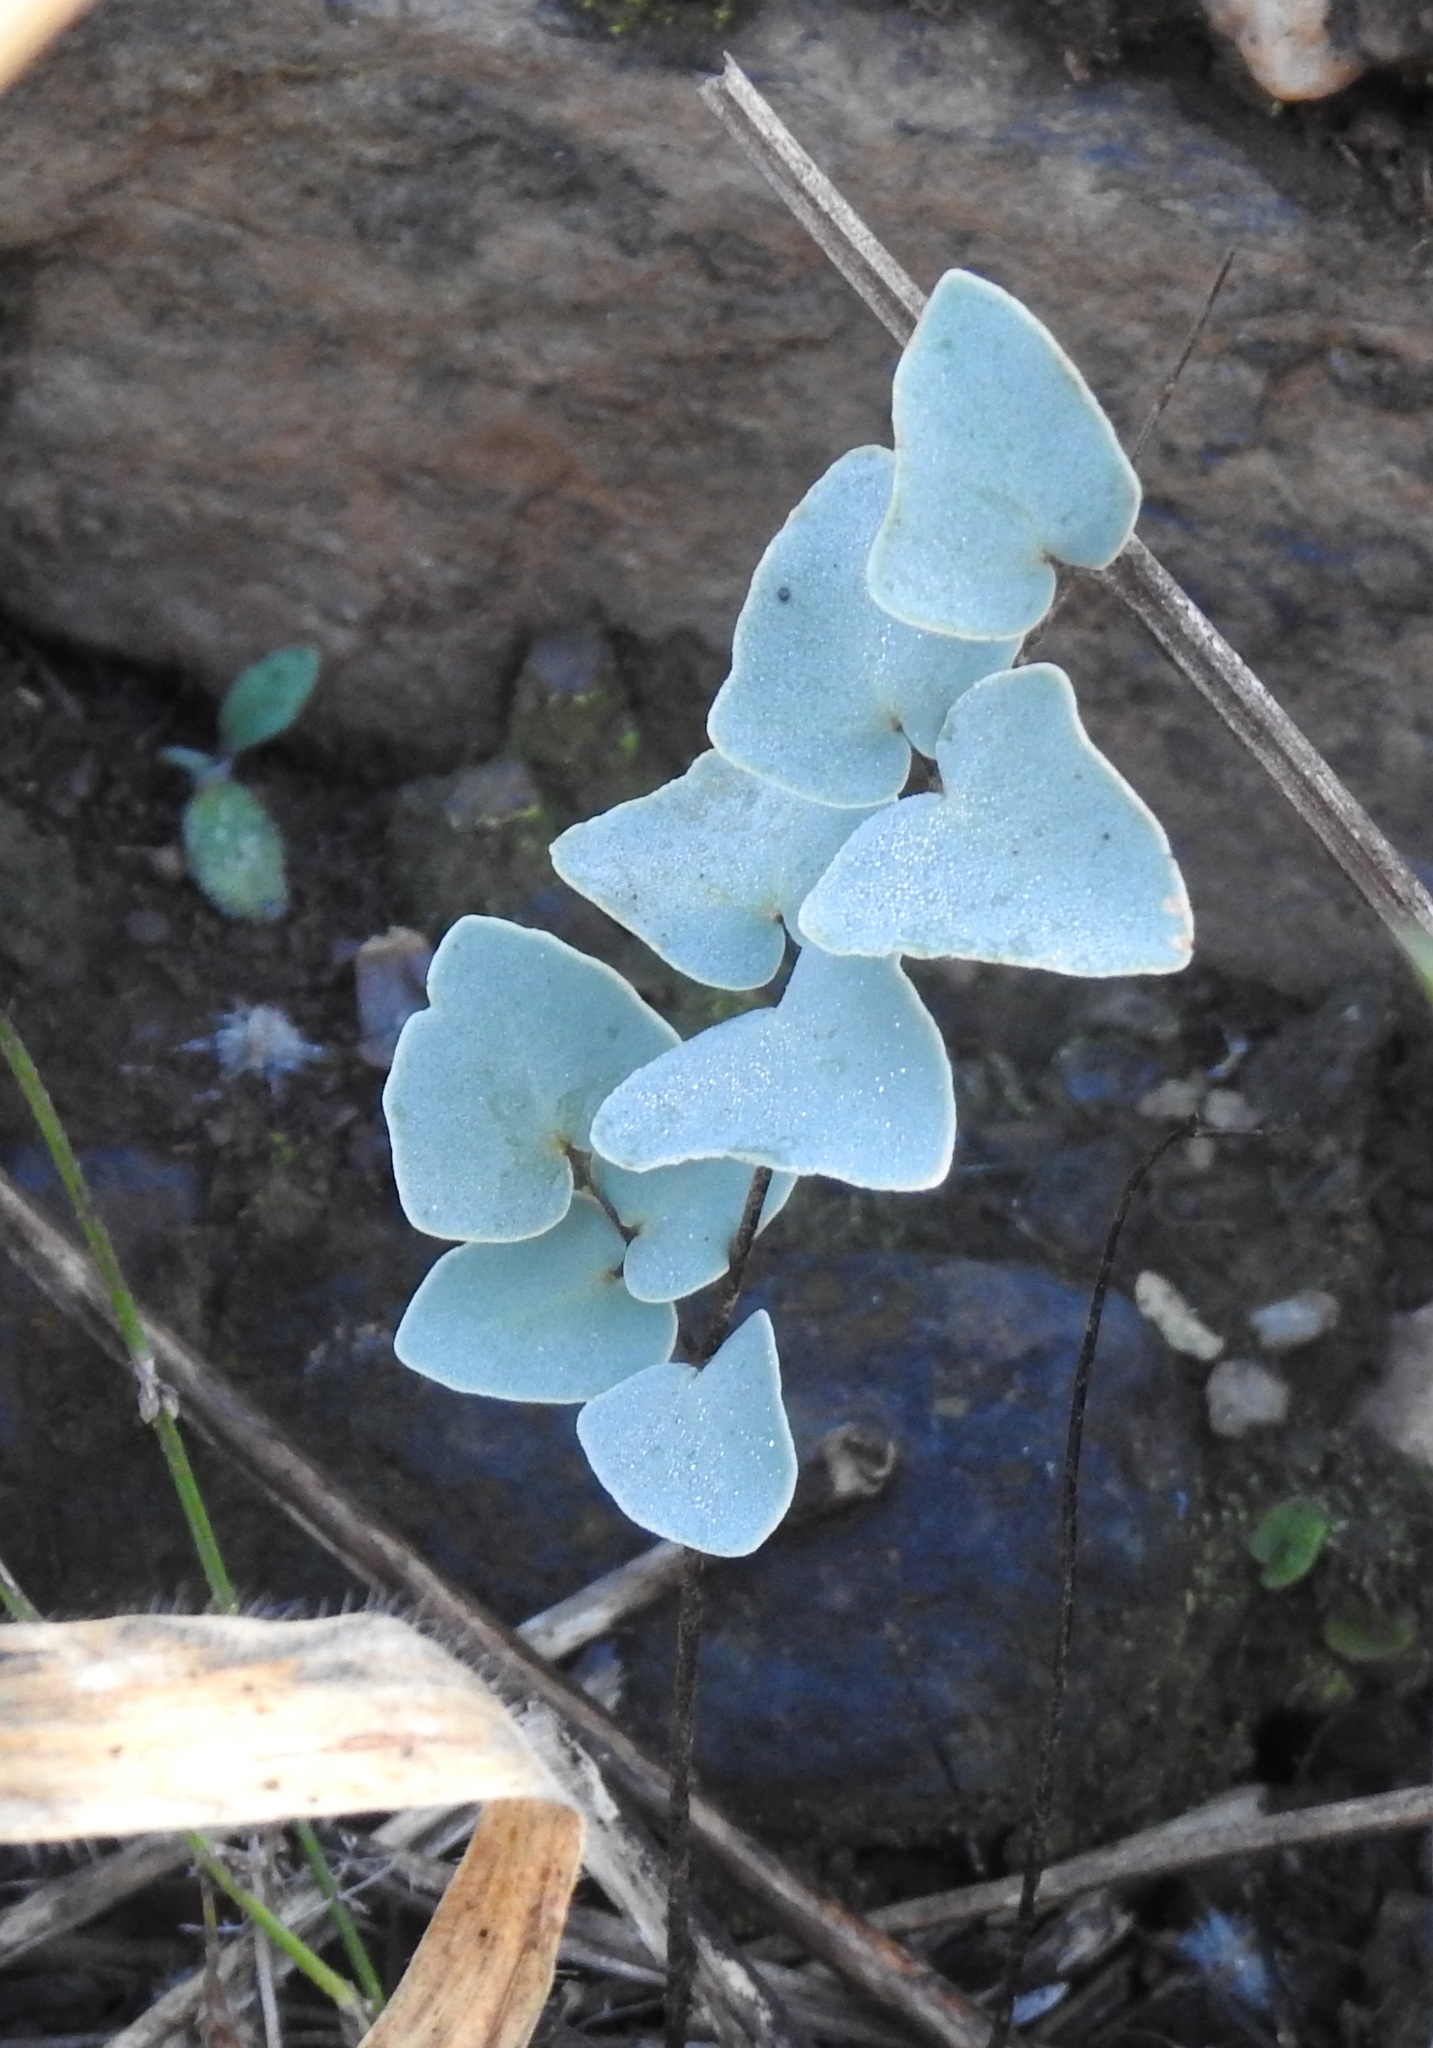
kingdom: Plantae
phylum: Tracheophyta
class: Polypodiopsida
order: Polypodiales
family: Pteridaceae
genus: Pellaea
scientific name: Pellaea calomelanos
